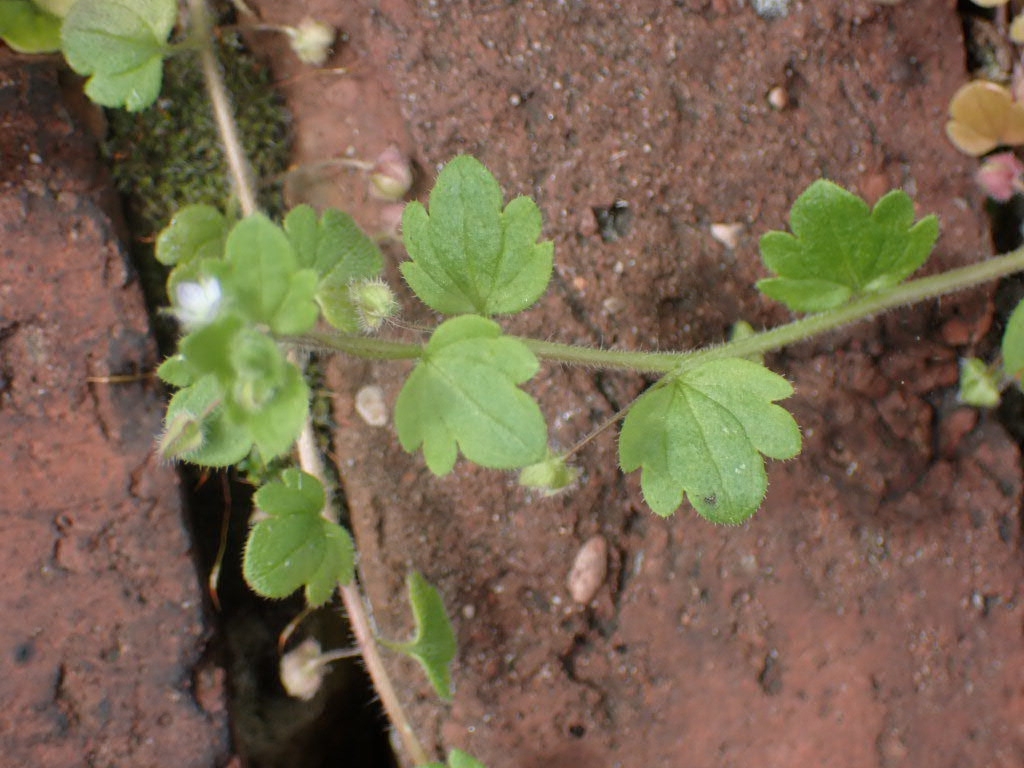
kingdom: Plantae
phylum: Tracheophyta
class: Magnoliopsida
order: Lamiales
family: Plantaginaceae
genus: Veronica
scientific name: Veronica sublobata
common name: False ivy-leaved speedwell
